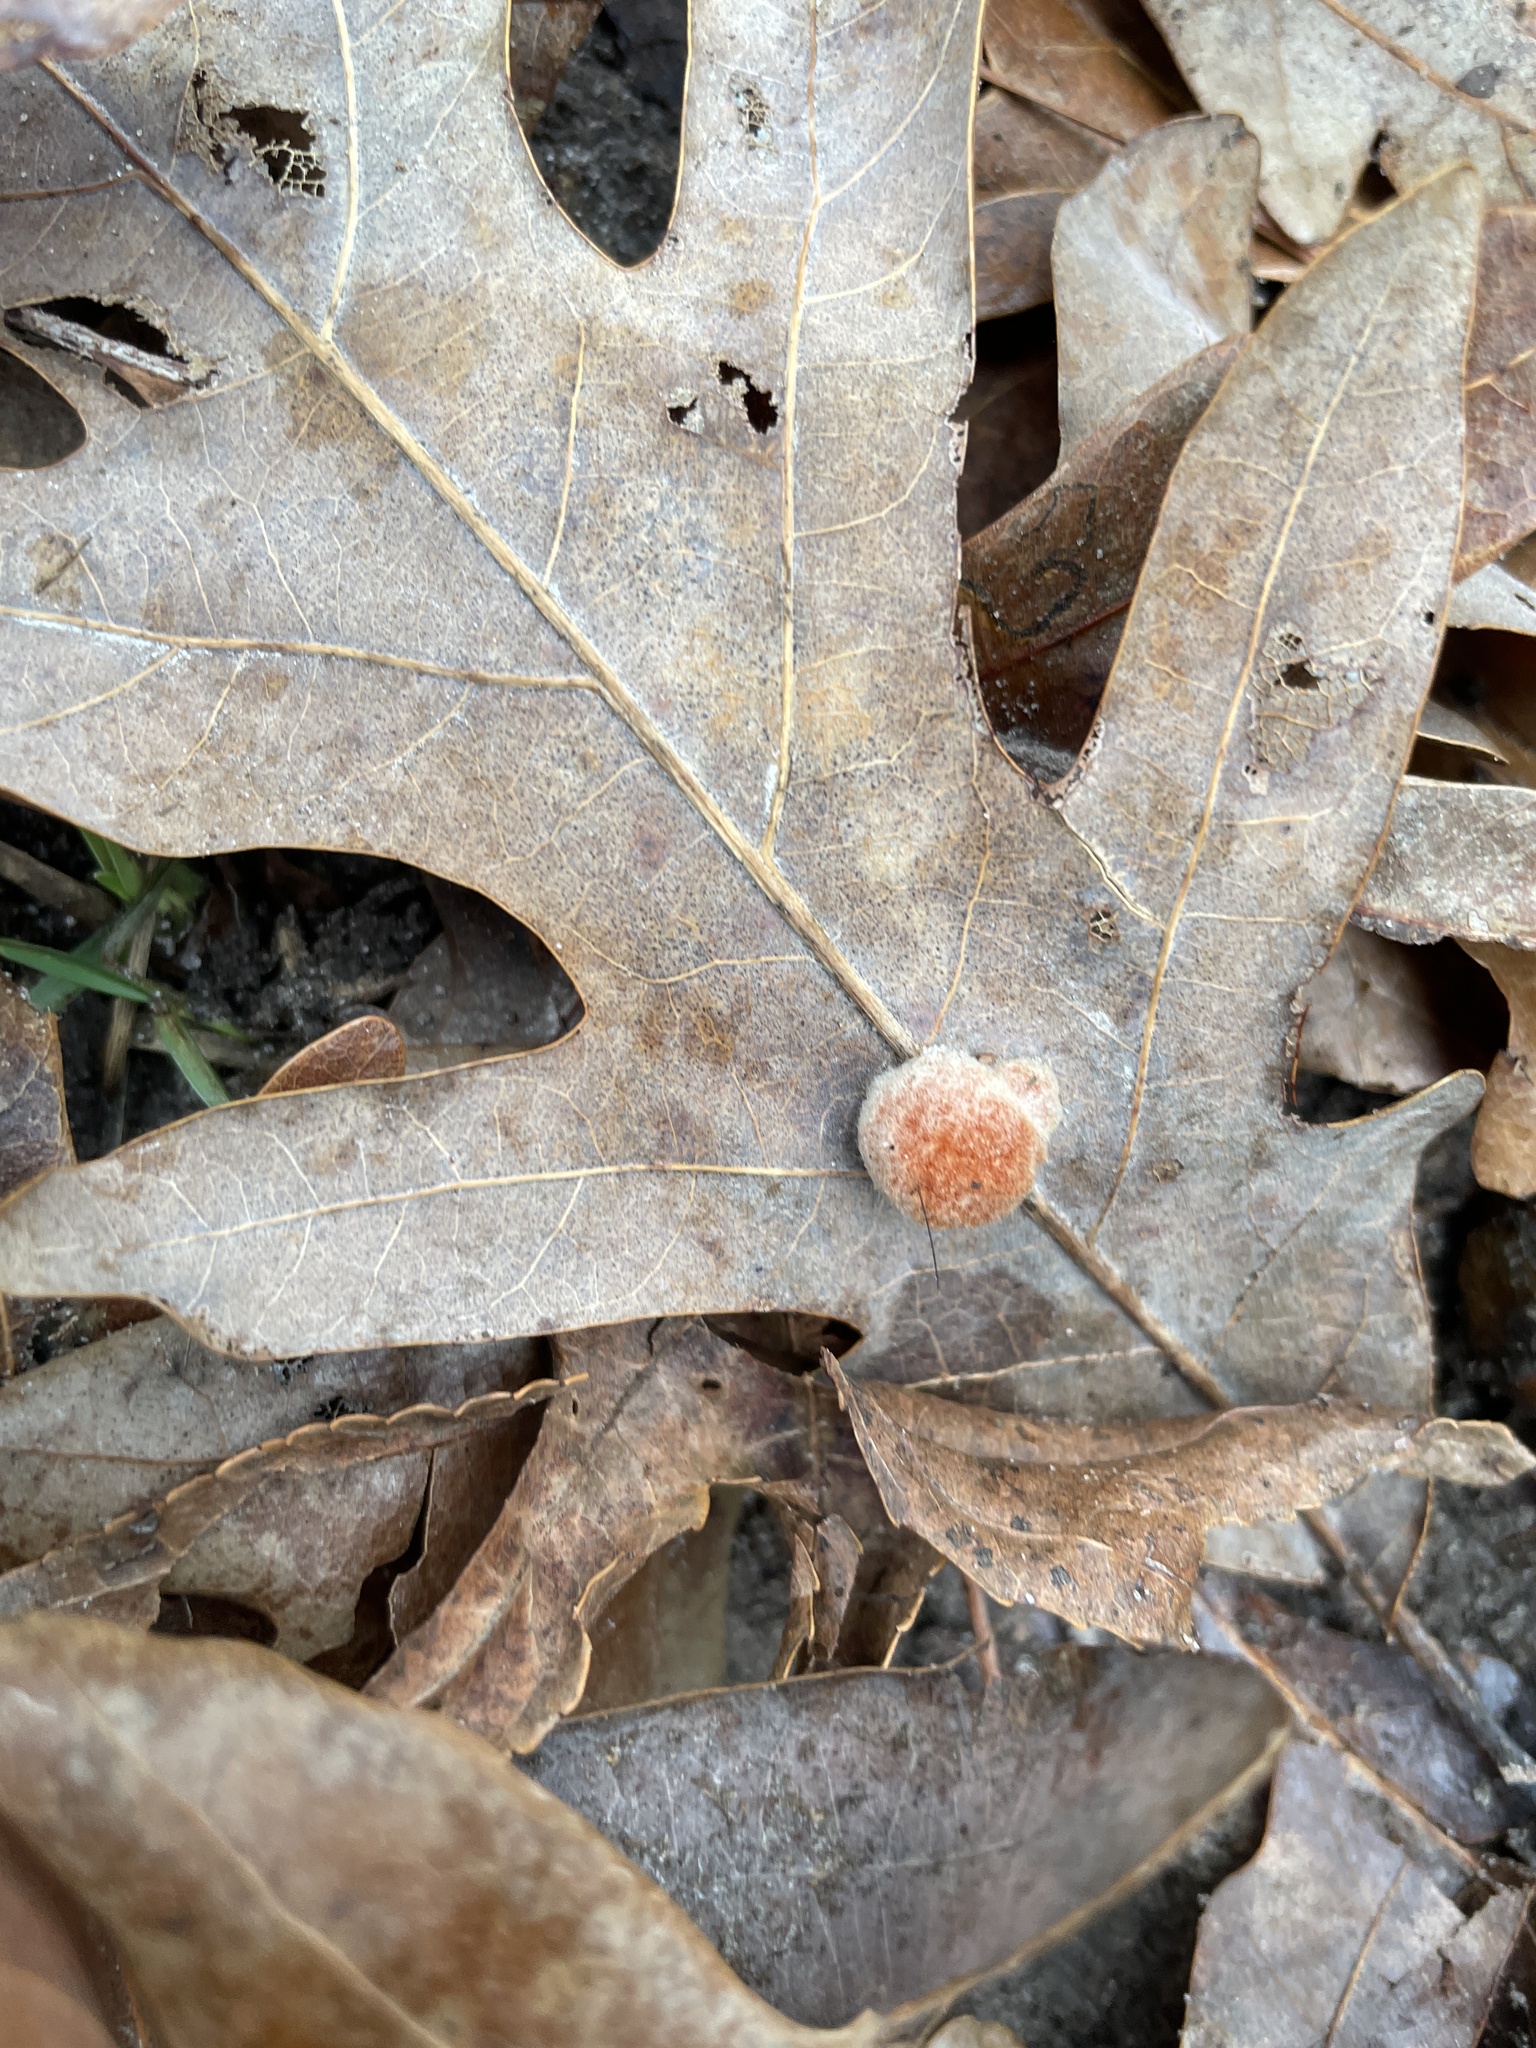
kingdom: Animalia
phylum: Arthropoda
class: Insecta
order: Hymenoptera
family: Cynipidae
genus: Andricus
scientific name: Andricus quercusflocci
